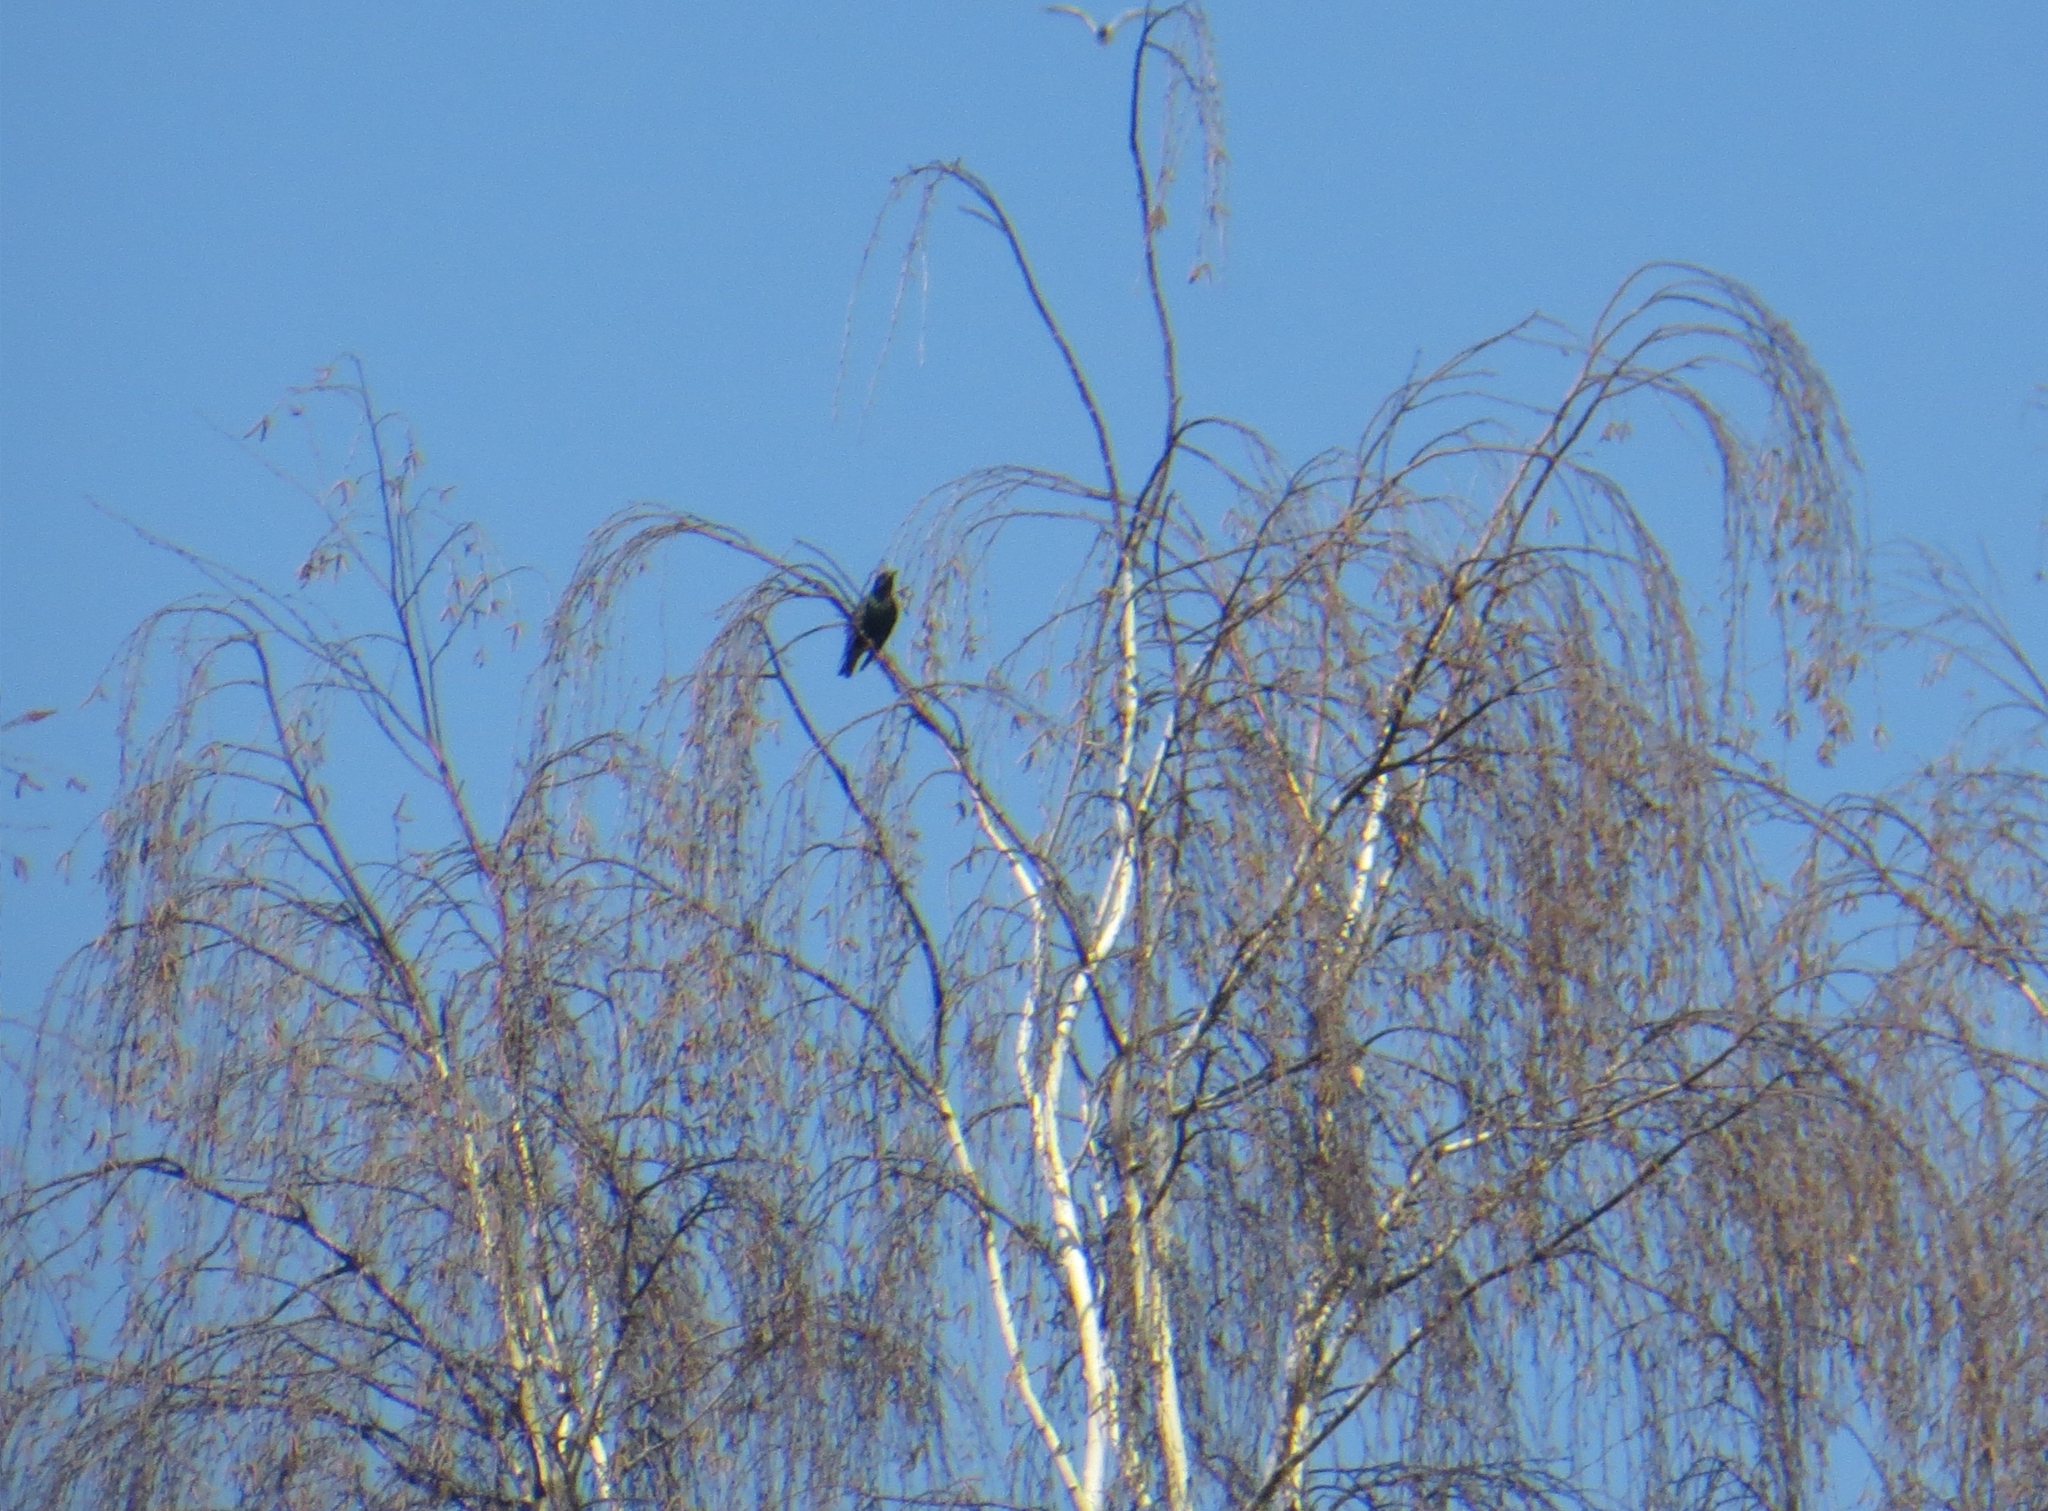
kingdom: Animalia
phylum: Chordata
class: Aves
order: Passeriformes
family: Sturnidae
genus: Sturnus
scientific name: Sturnus vulgaris
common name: Common starling
